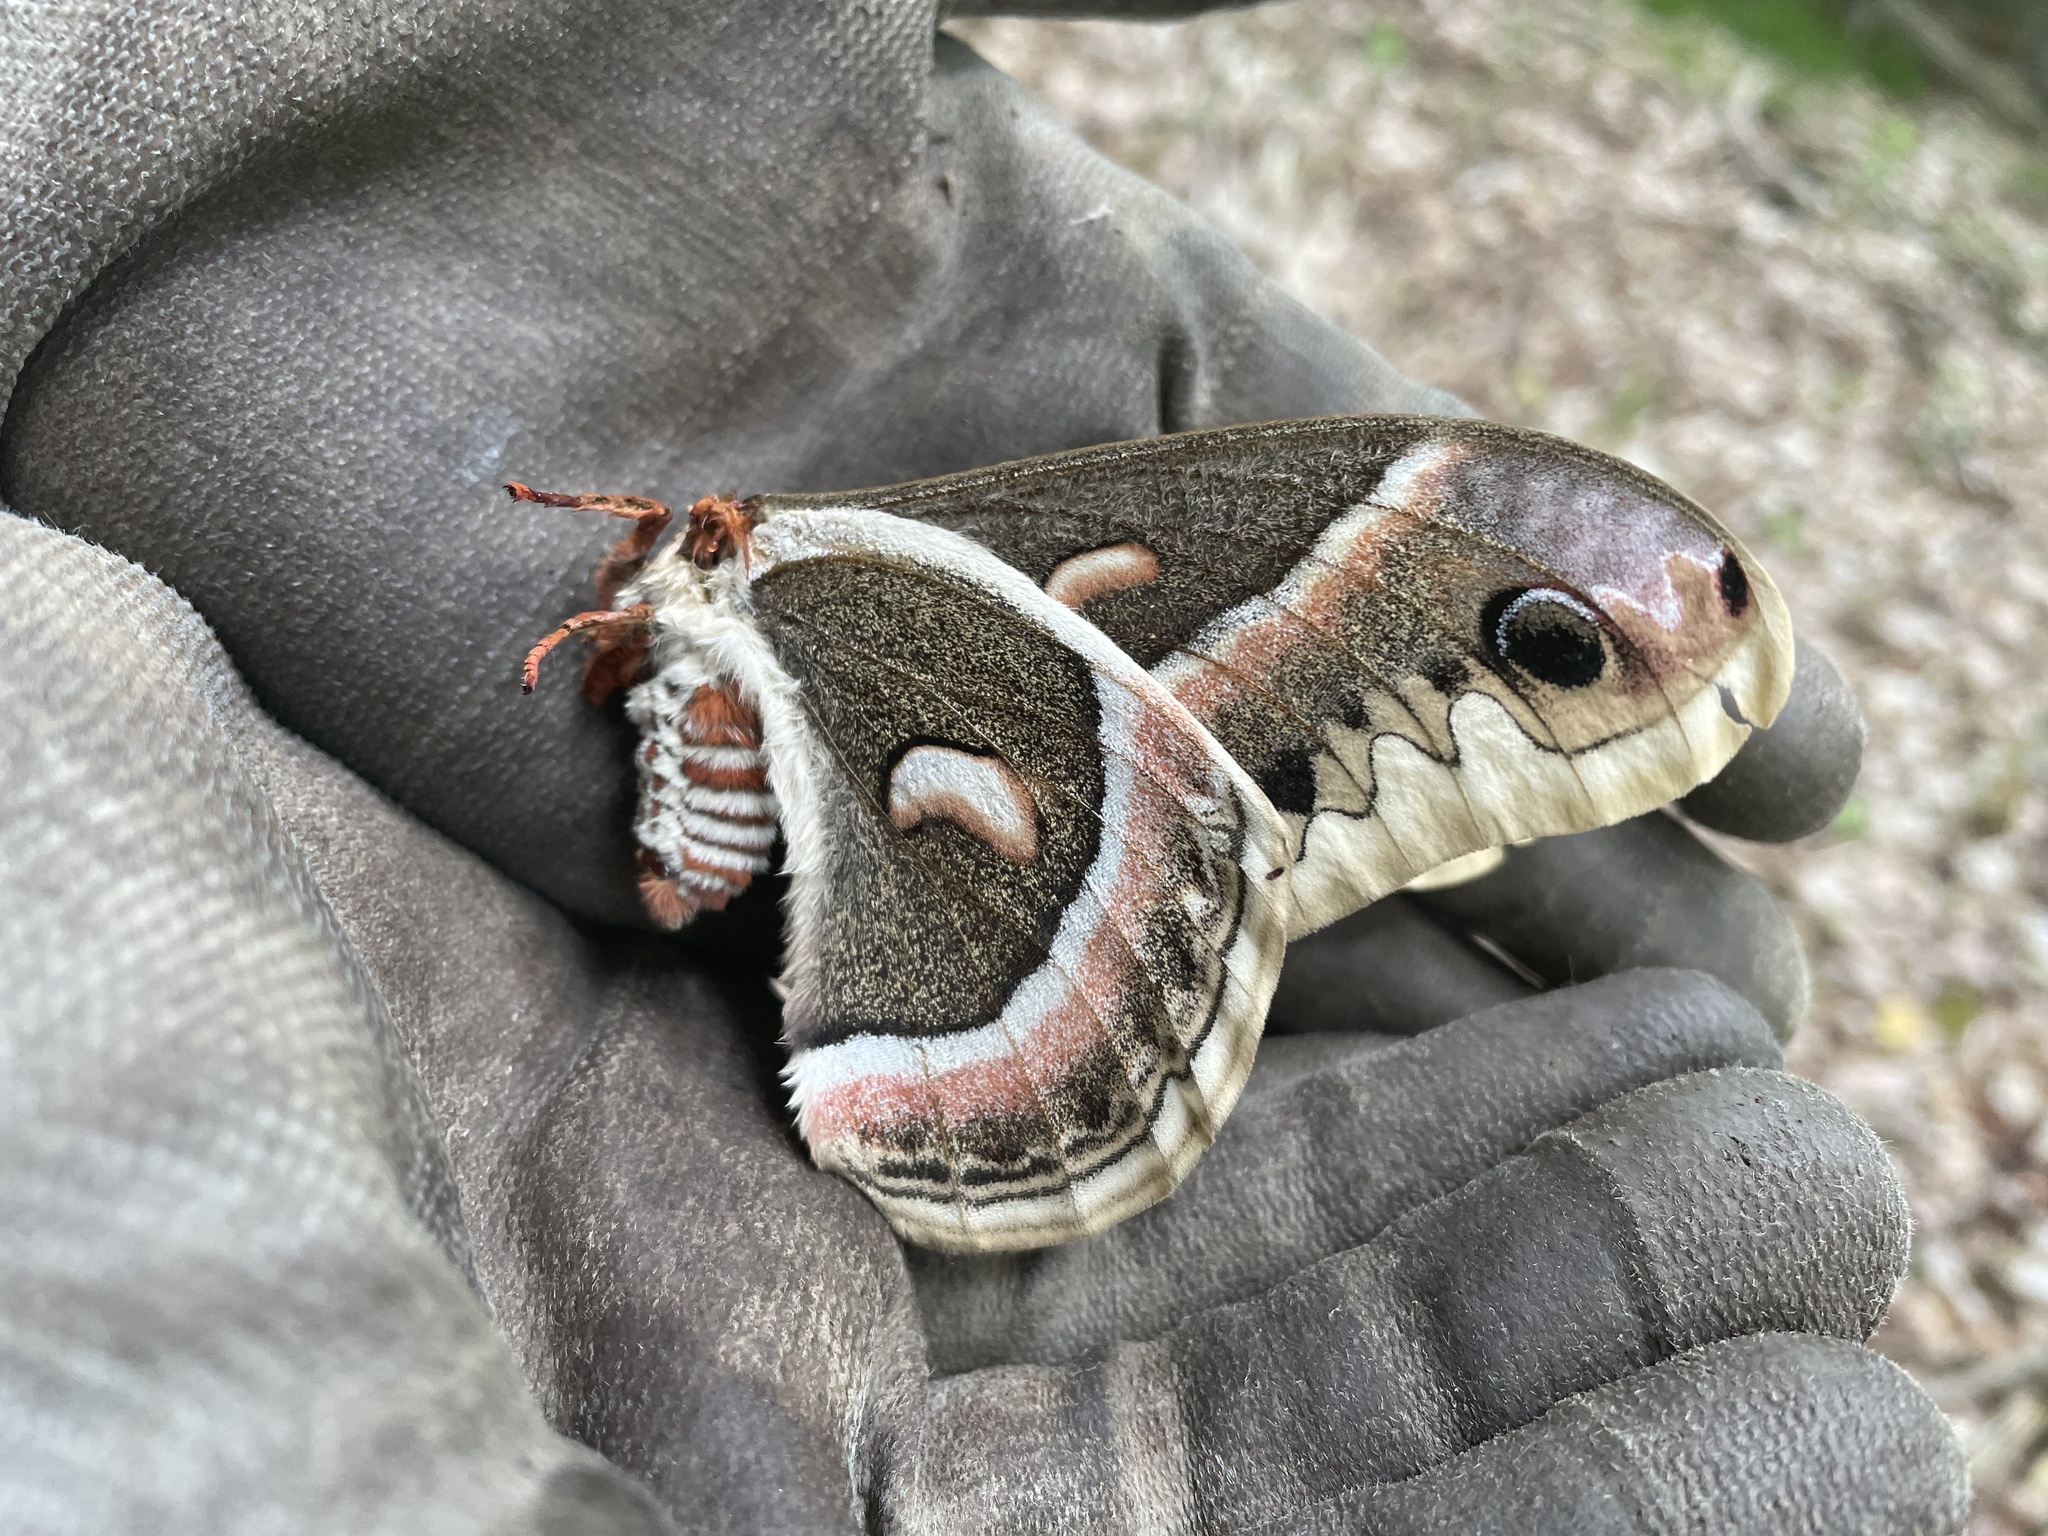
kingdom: Animalia
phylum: Arthropoda
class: Insecta
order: Lepidoptera
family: Saturniidae
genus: Hyalophora
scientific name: Hyalophora cecropia
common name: Cecropia silkmoth
